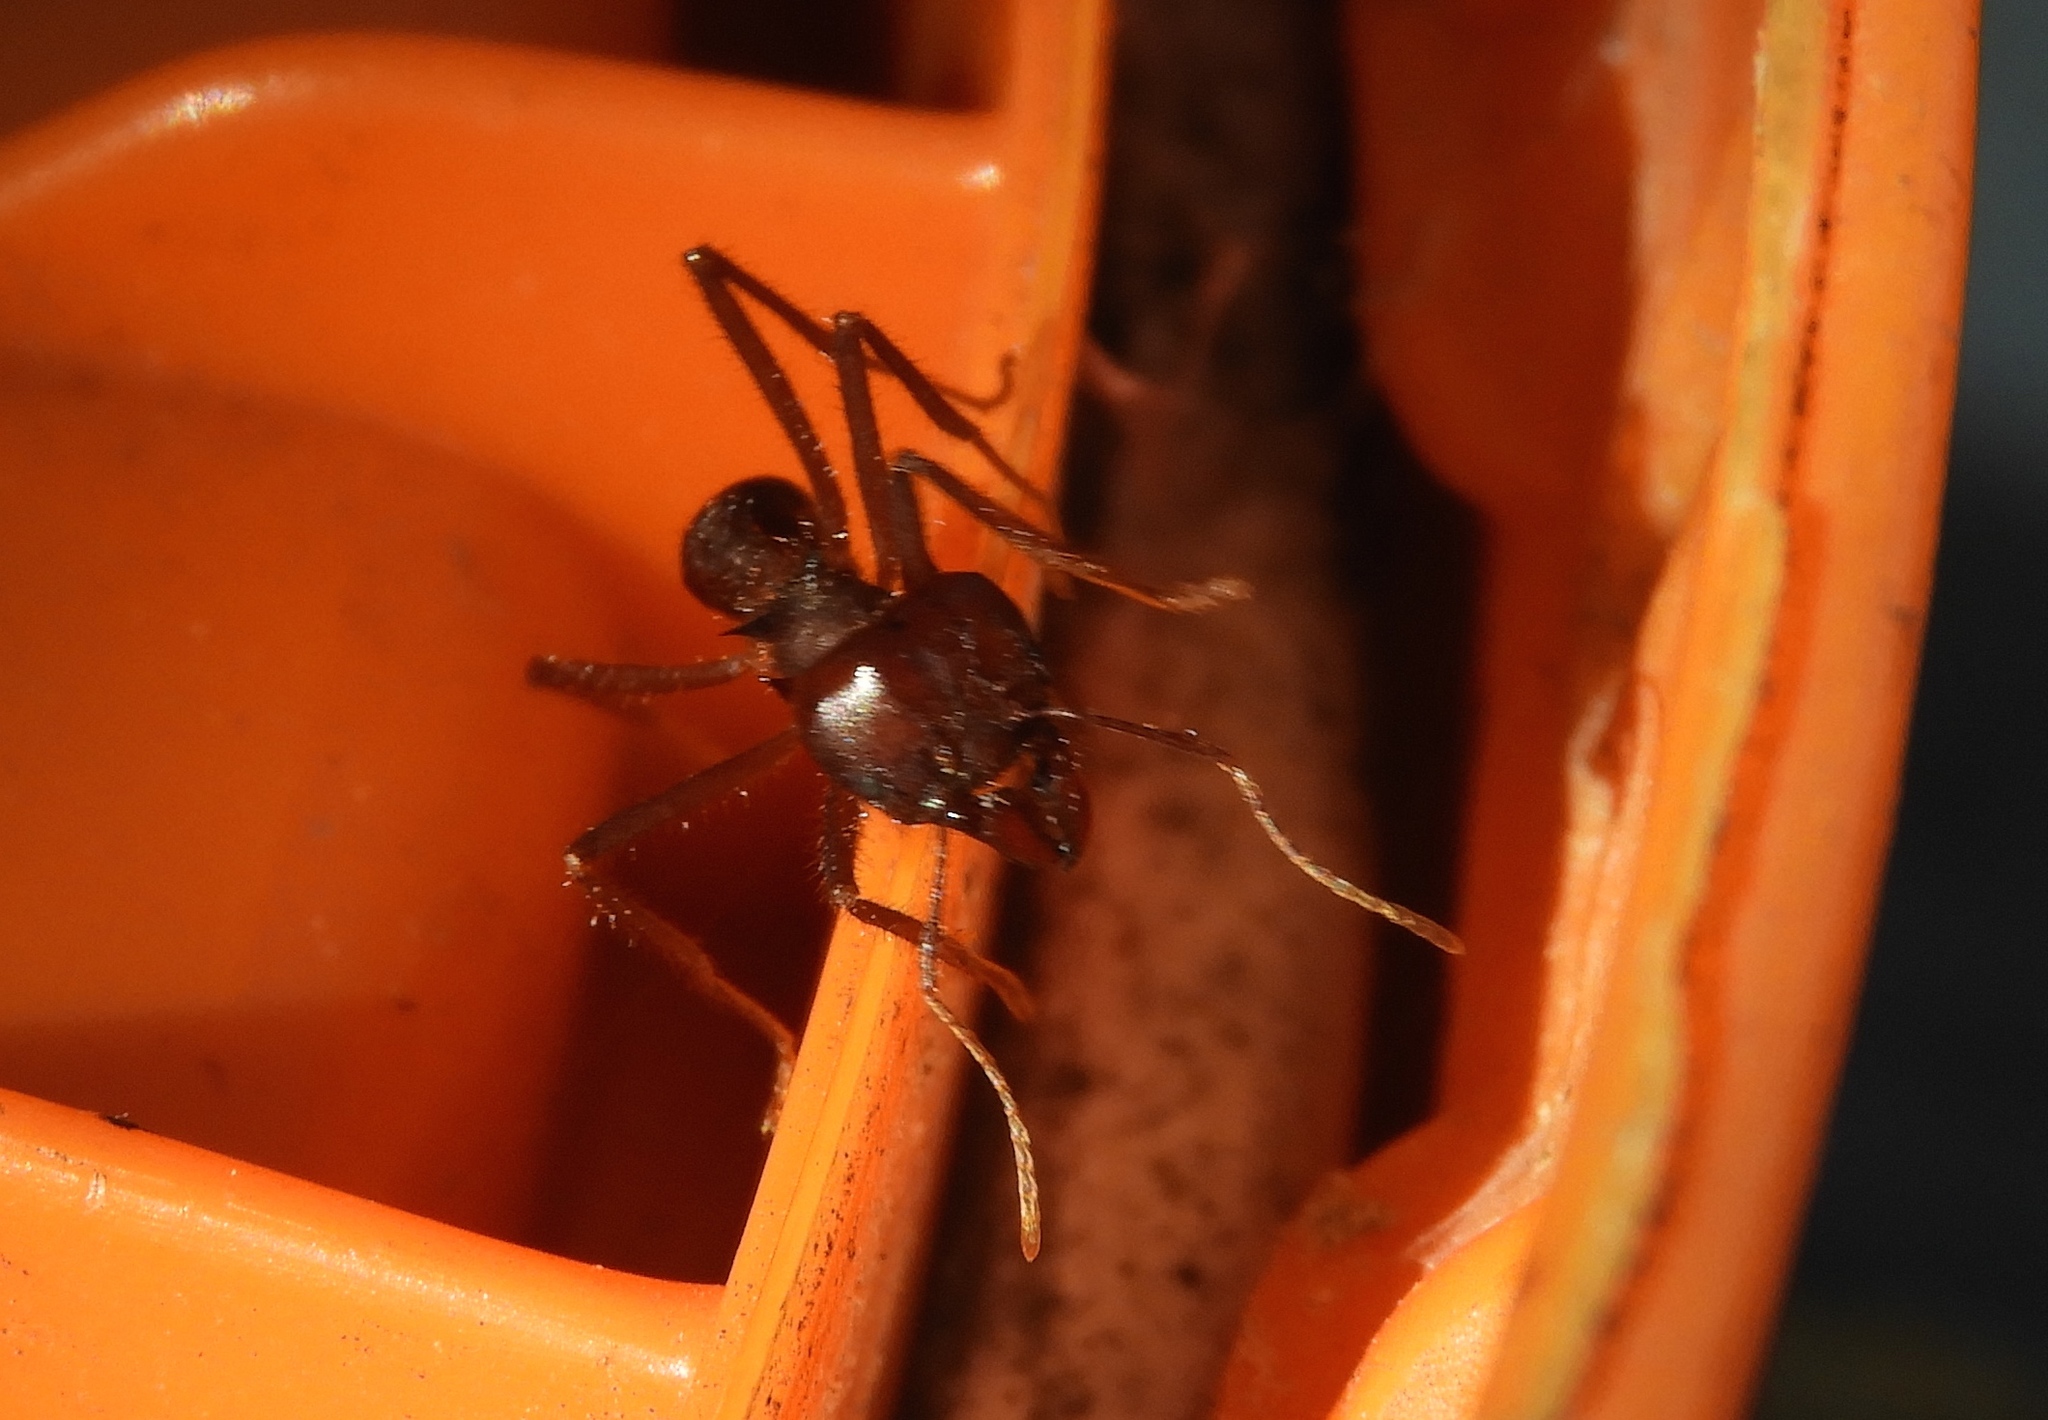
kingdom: Animalia
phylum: Arthropoda
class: Insecta
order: Hymenoptera
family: Formicidae
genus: Atta
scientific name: Atta mexicana
